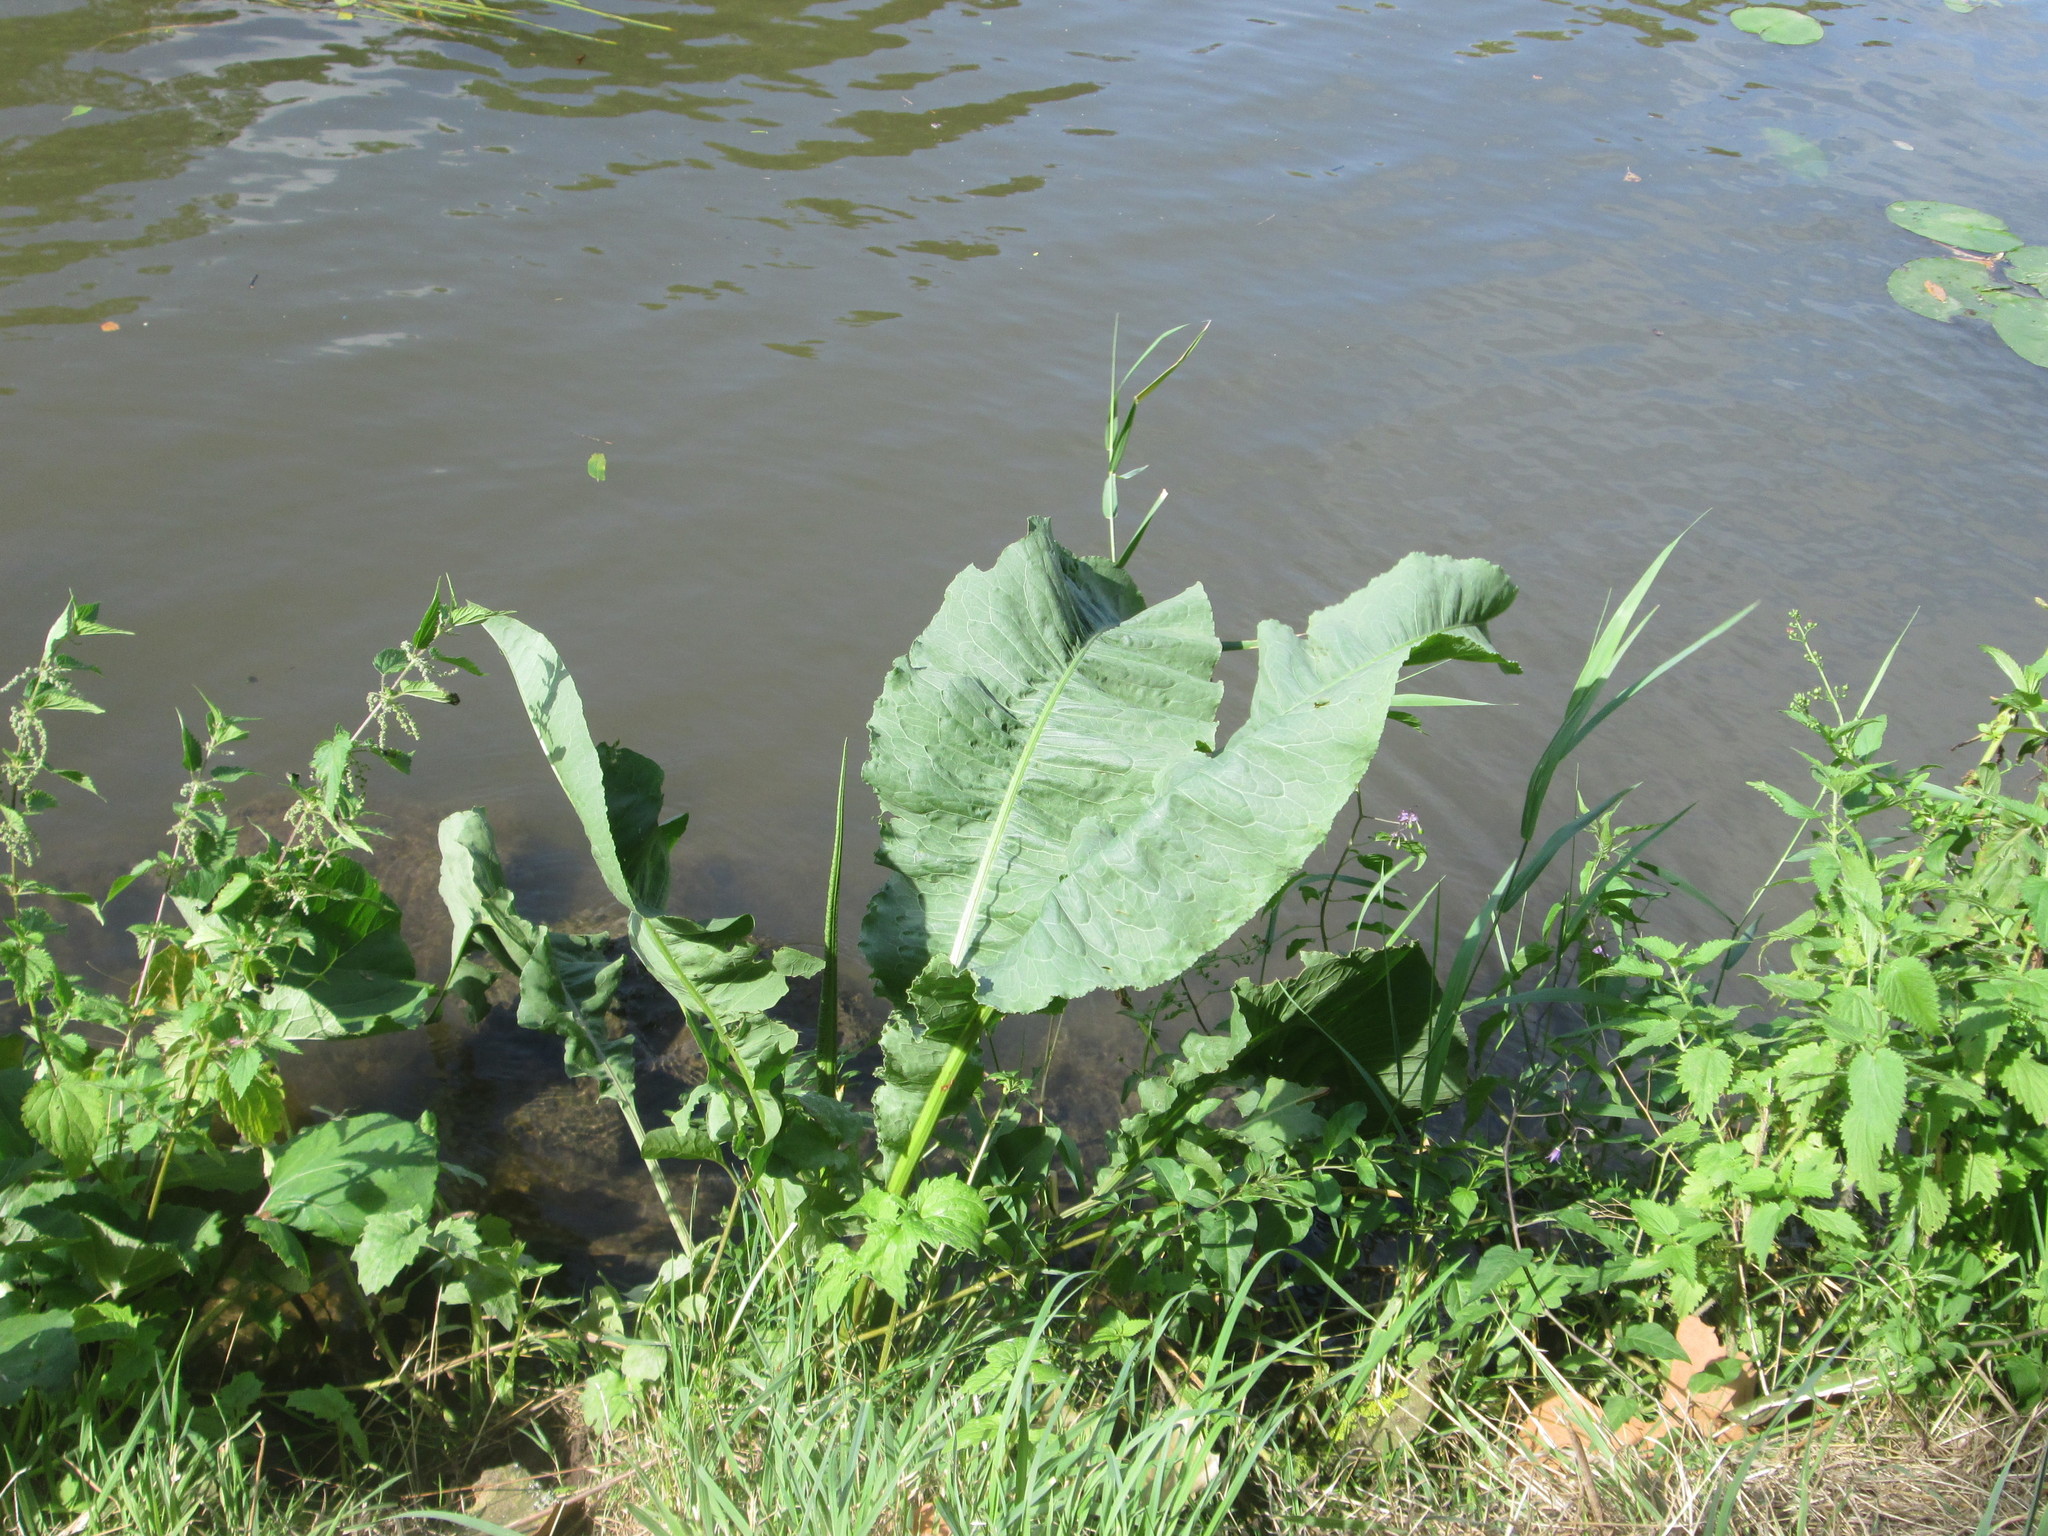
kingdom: Plantae
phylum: Tracheophyta
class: Magnoliopsida
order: Brassicales
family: Brassicaceae
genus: Armoracia
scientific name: Armoracia rusticana
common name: Horseradish
